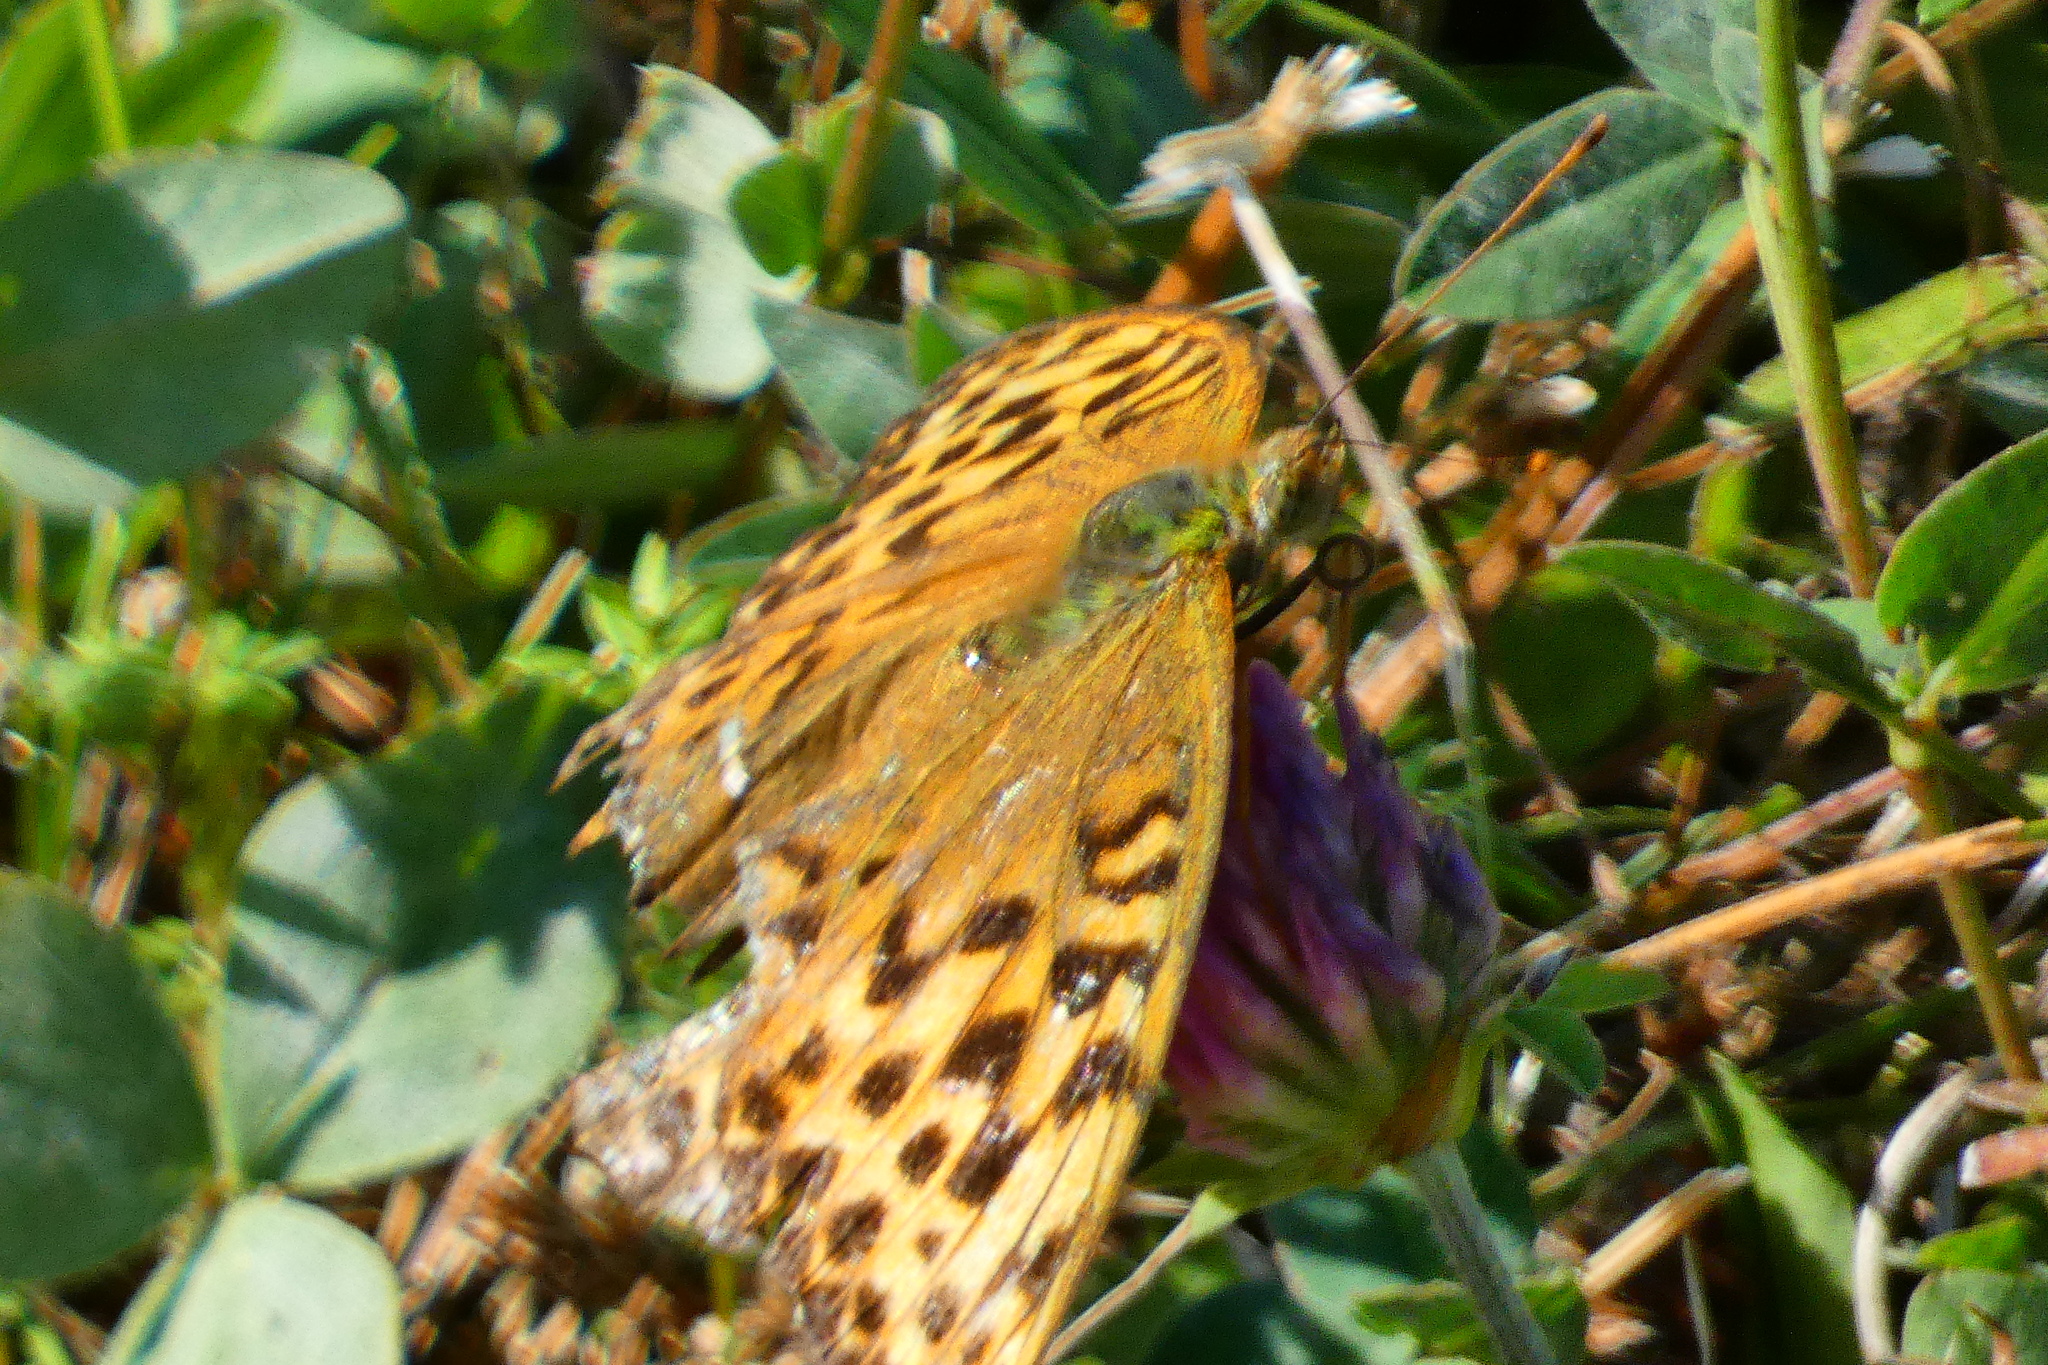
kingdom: Animalia
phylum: Arthropoda
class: Insecta
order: Lepidoptera
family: Nymphalidae
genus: Argynnis
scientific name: Argynnis paphia
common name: Silver-washed fritillary
